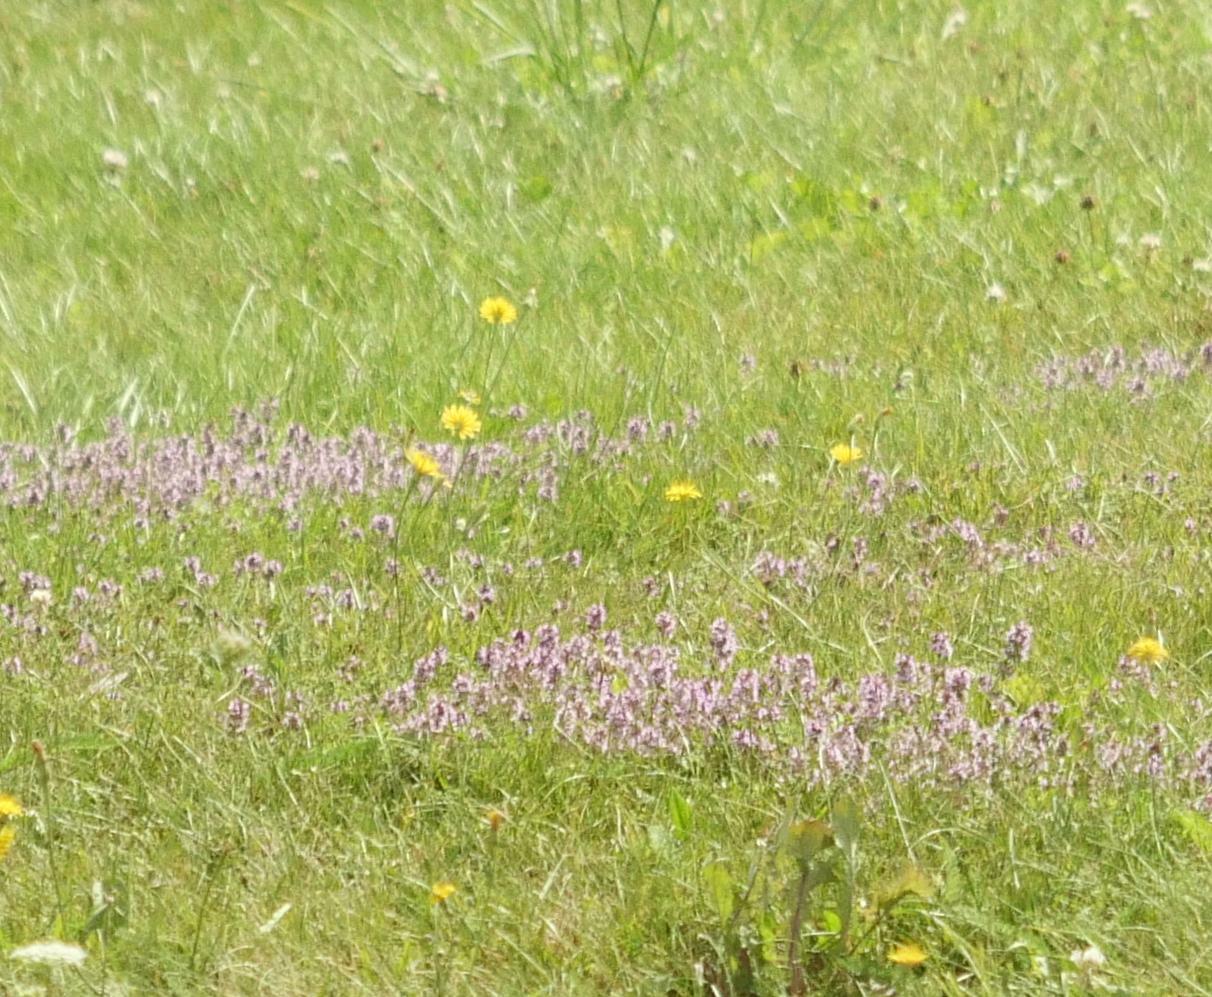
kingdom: Plantae
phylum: Tracheophyta
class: Magnoliopsida
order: Lamiales
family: Lamiaceae
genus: Thymus
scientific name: Thymus pulegioides
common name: Large thyme
